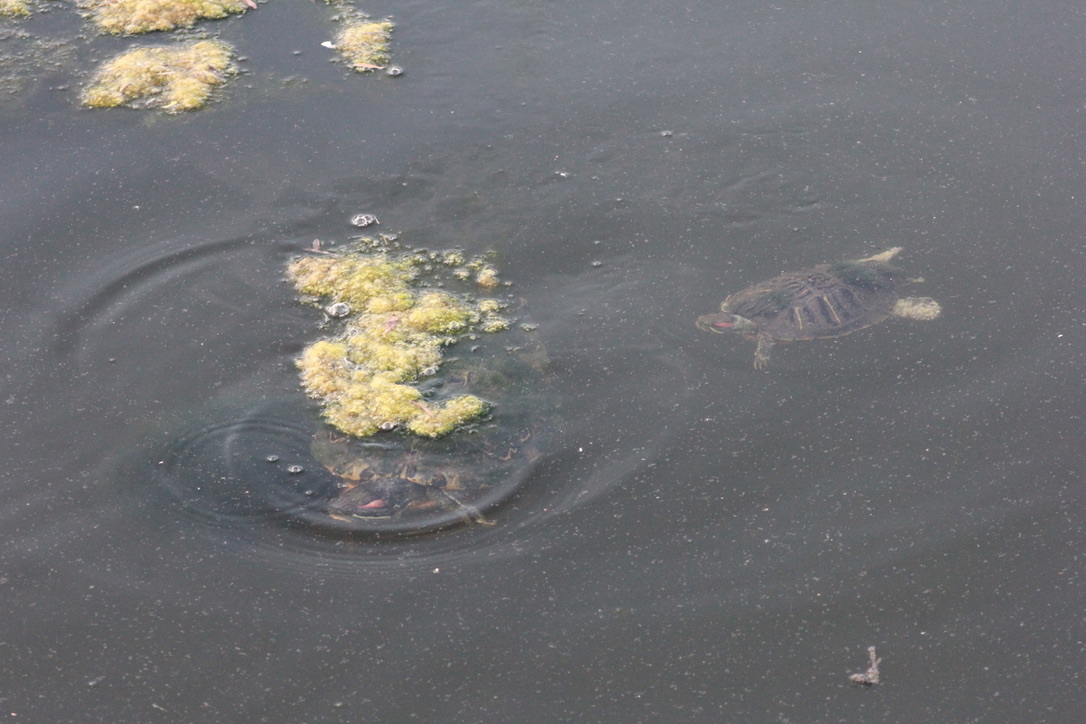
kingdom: Animalia
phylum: Chordata
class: Testudines
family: Emydidae
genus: Trachemys
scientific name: Trachemys scripta
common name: Slider
